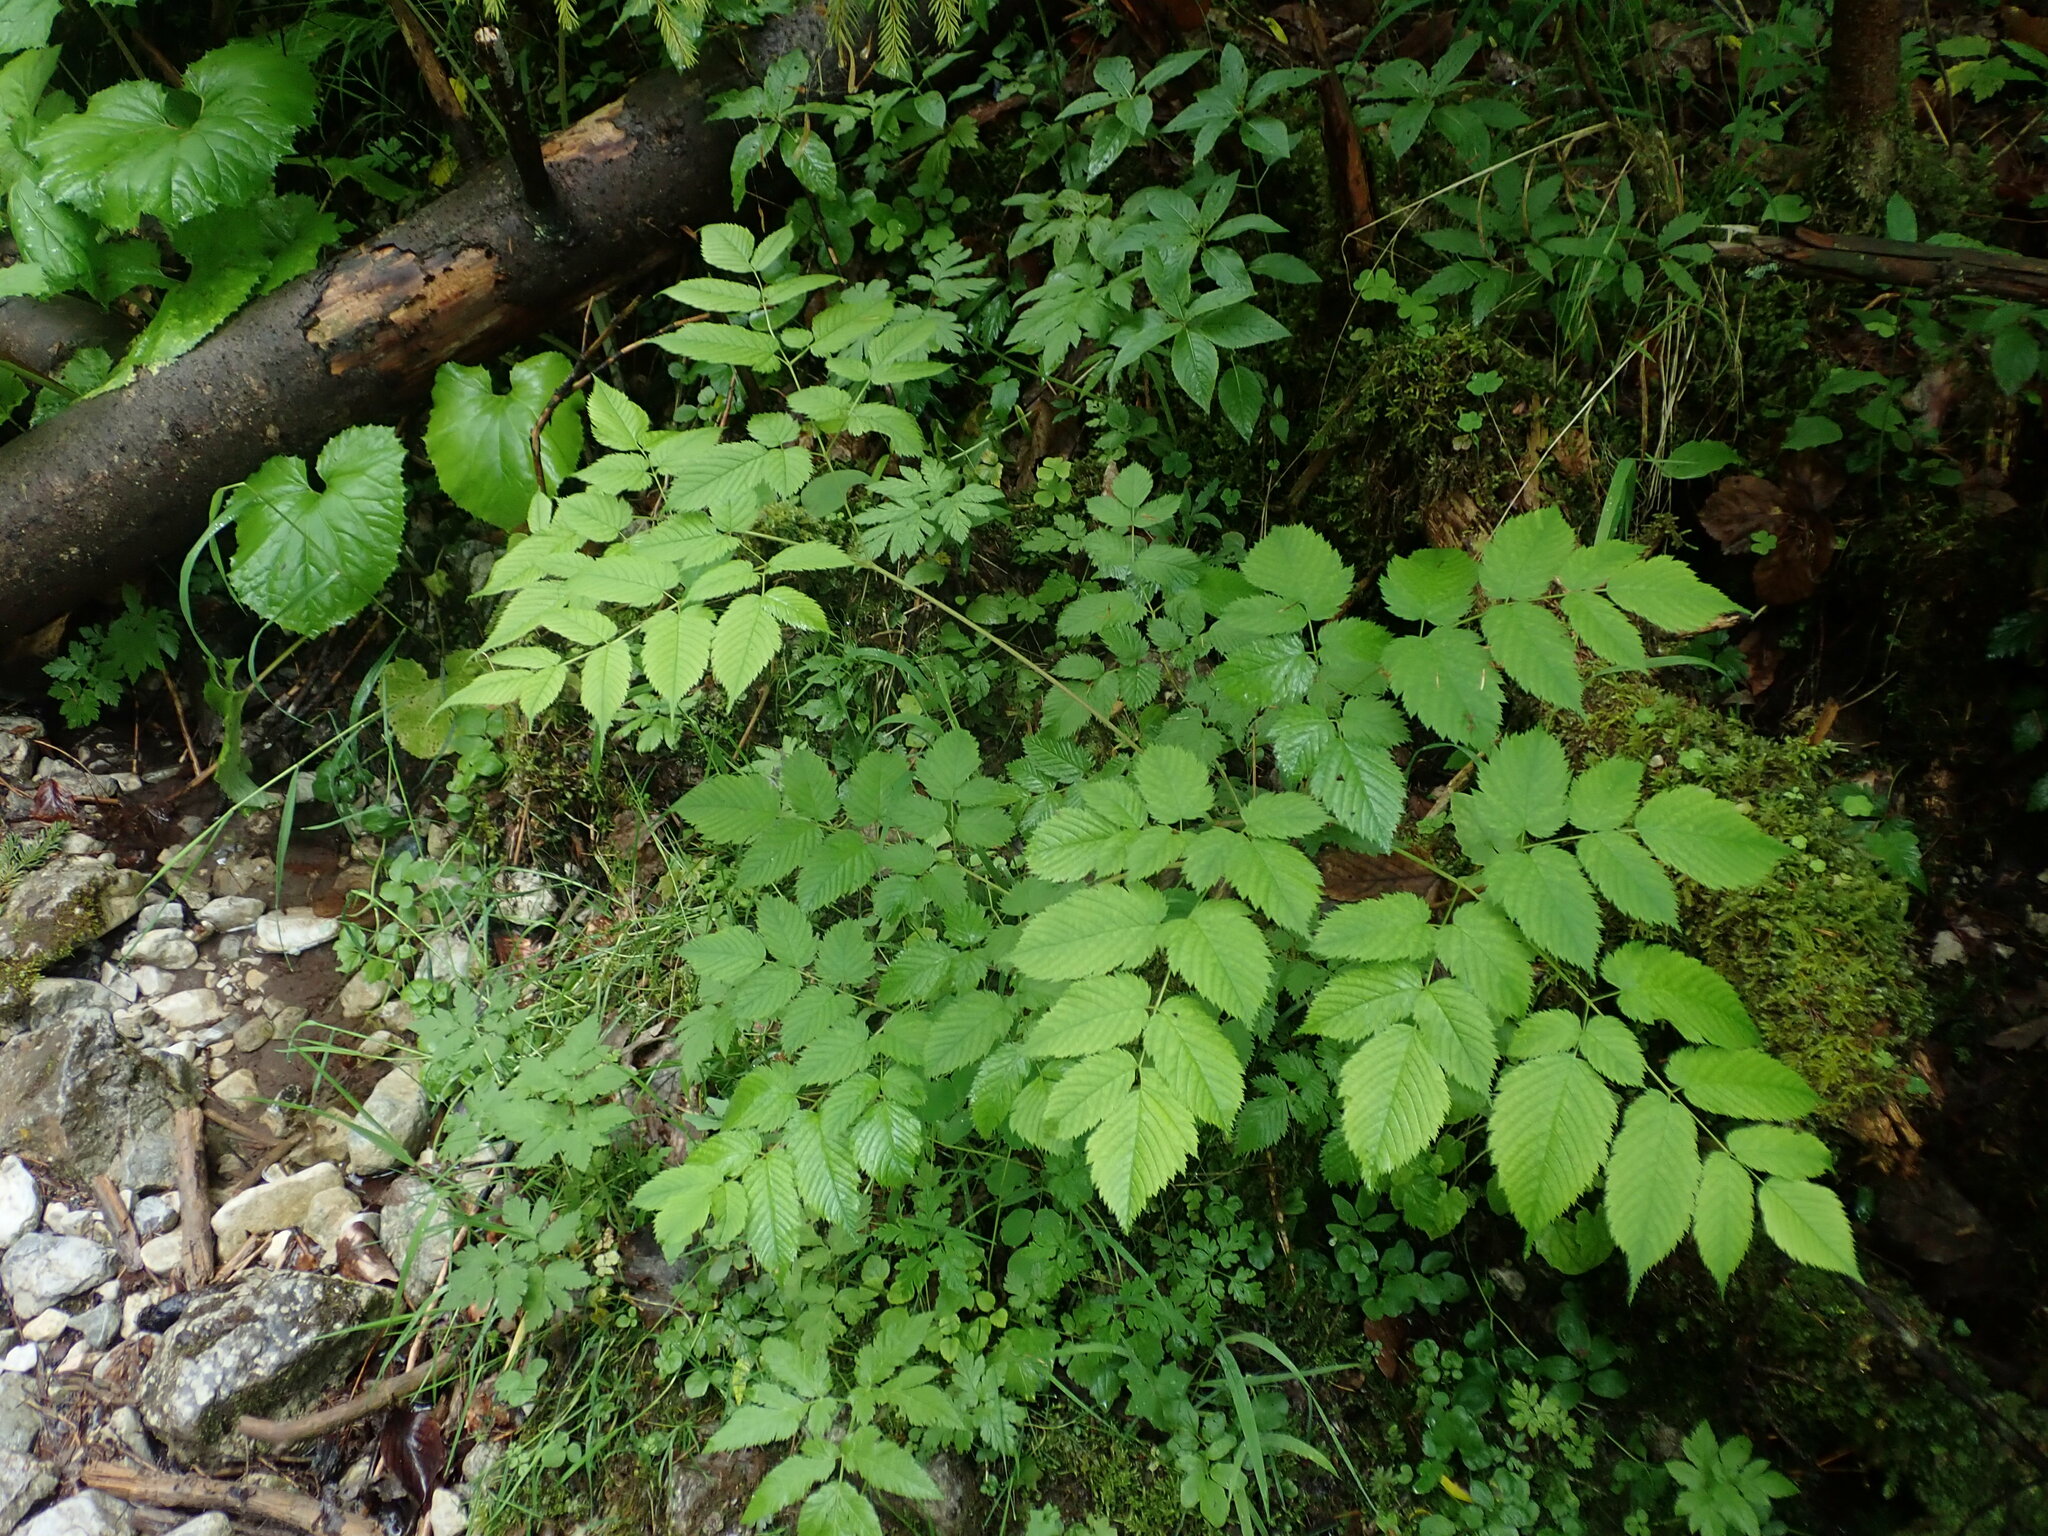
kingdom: Plantae
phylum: Tracheophyta
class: Magnoliopsida
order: Rosales
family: Rosaceae
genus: Aruncus
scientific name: Aruncus dioicus
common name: Buck's-beard
